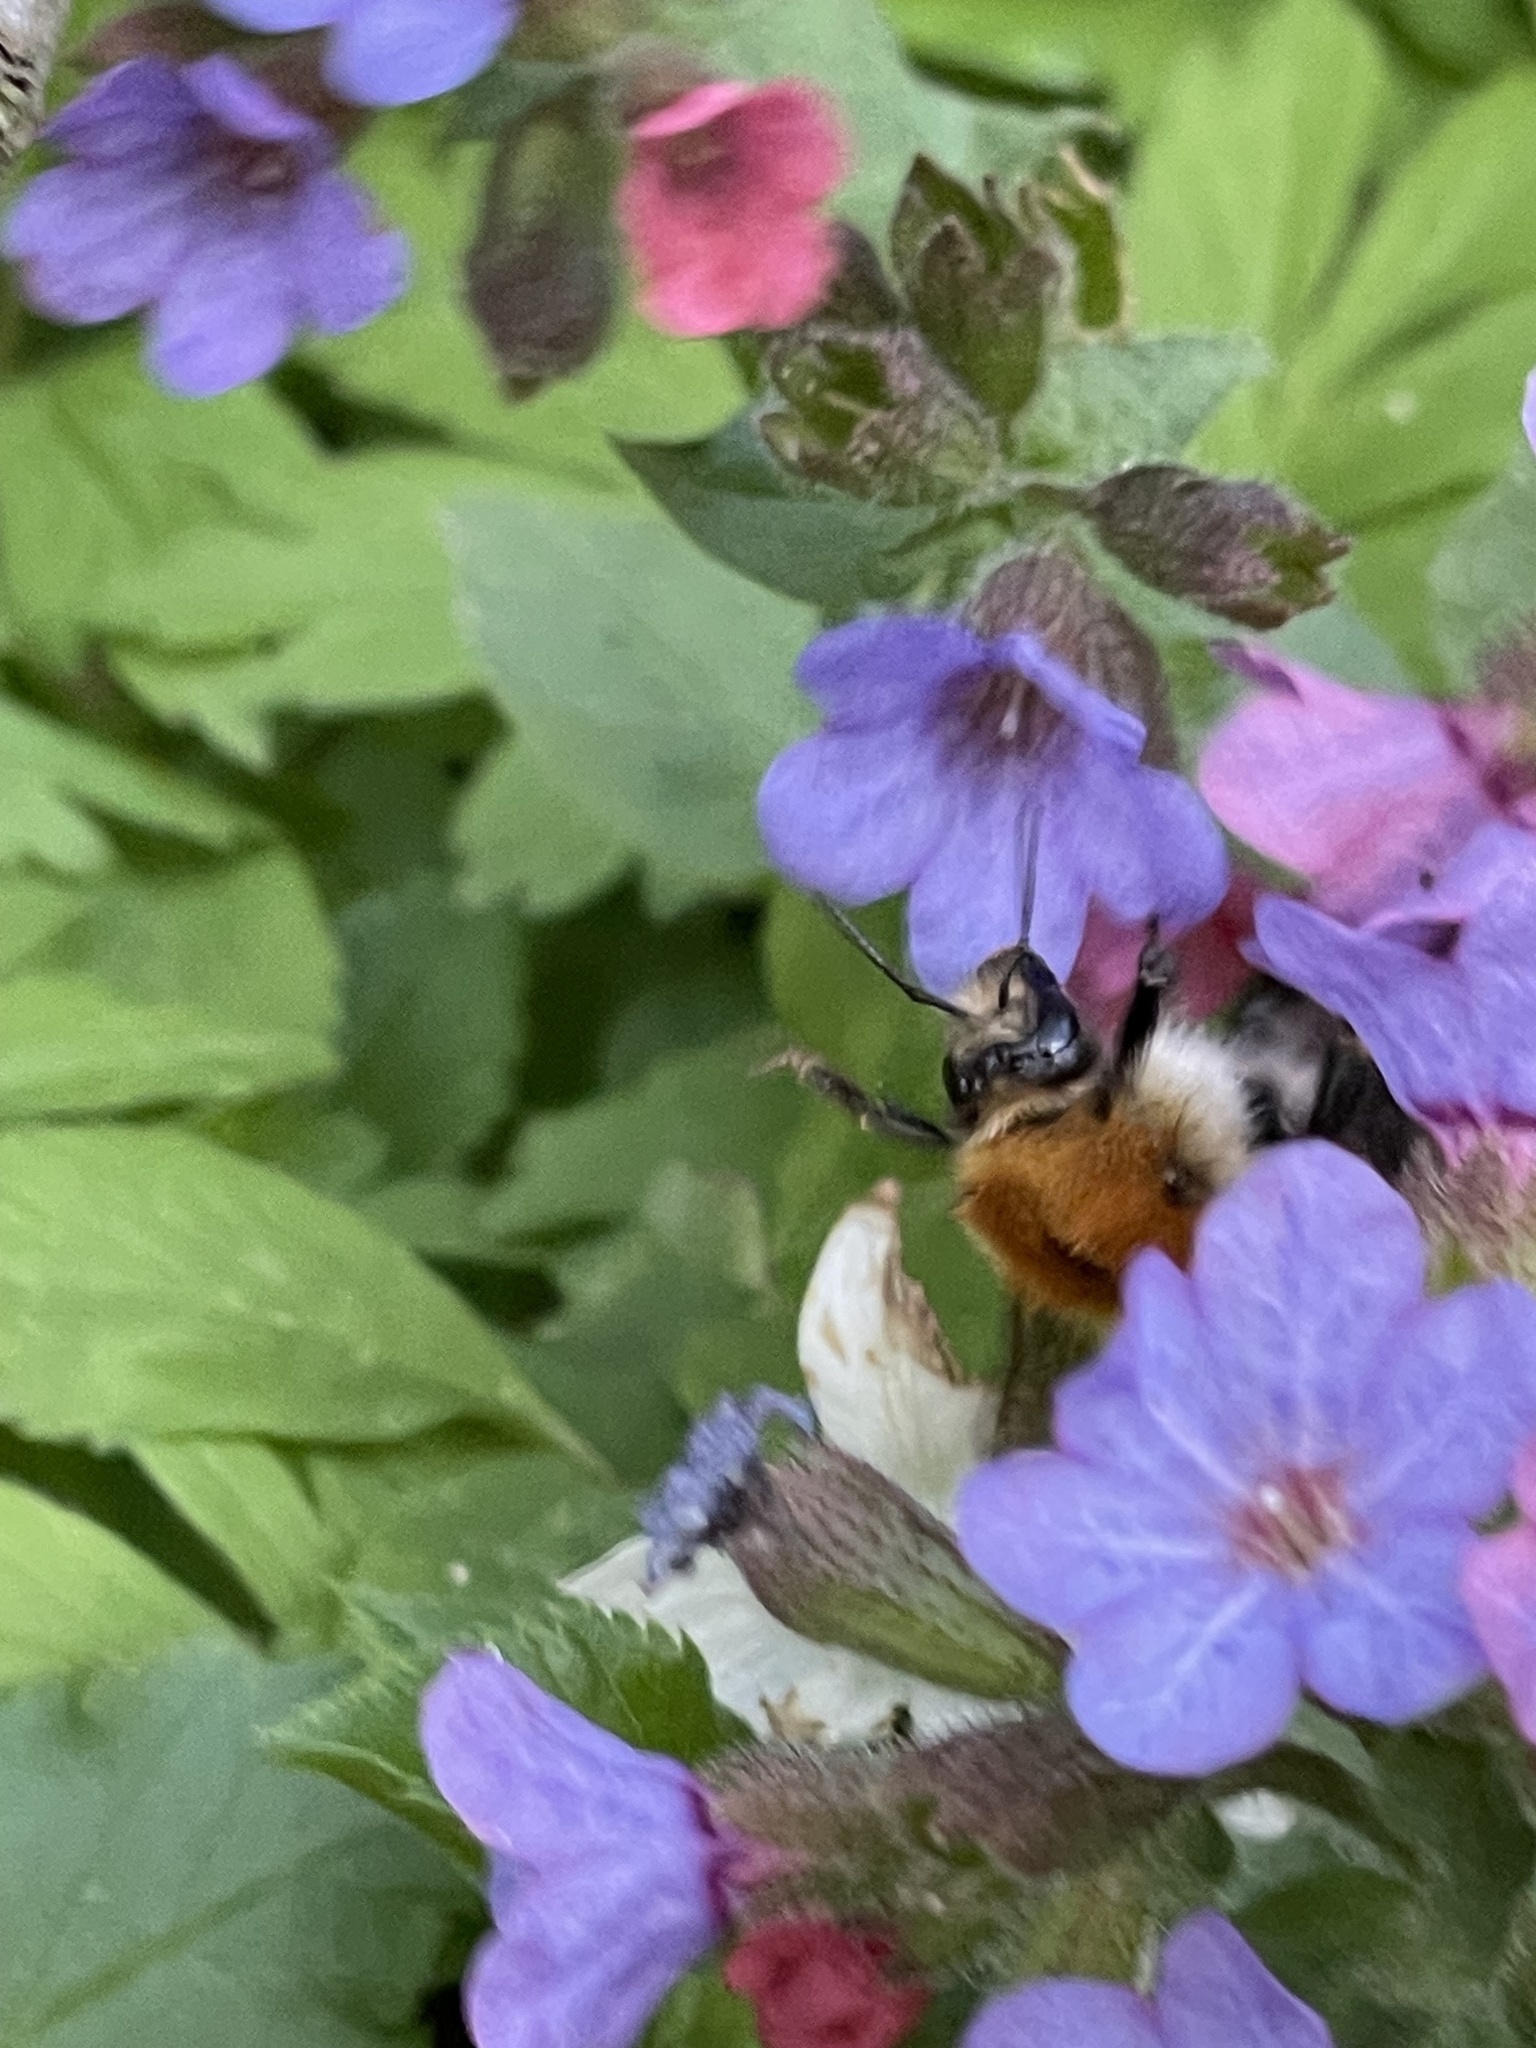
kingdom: Animalia
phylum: Arthropoda
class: Insecta
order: Hymenoptera
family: Apidae
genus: Bombus
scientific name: Bombus pascuorum
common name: Common carder bee
